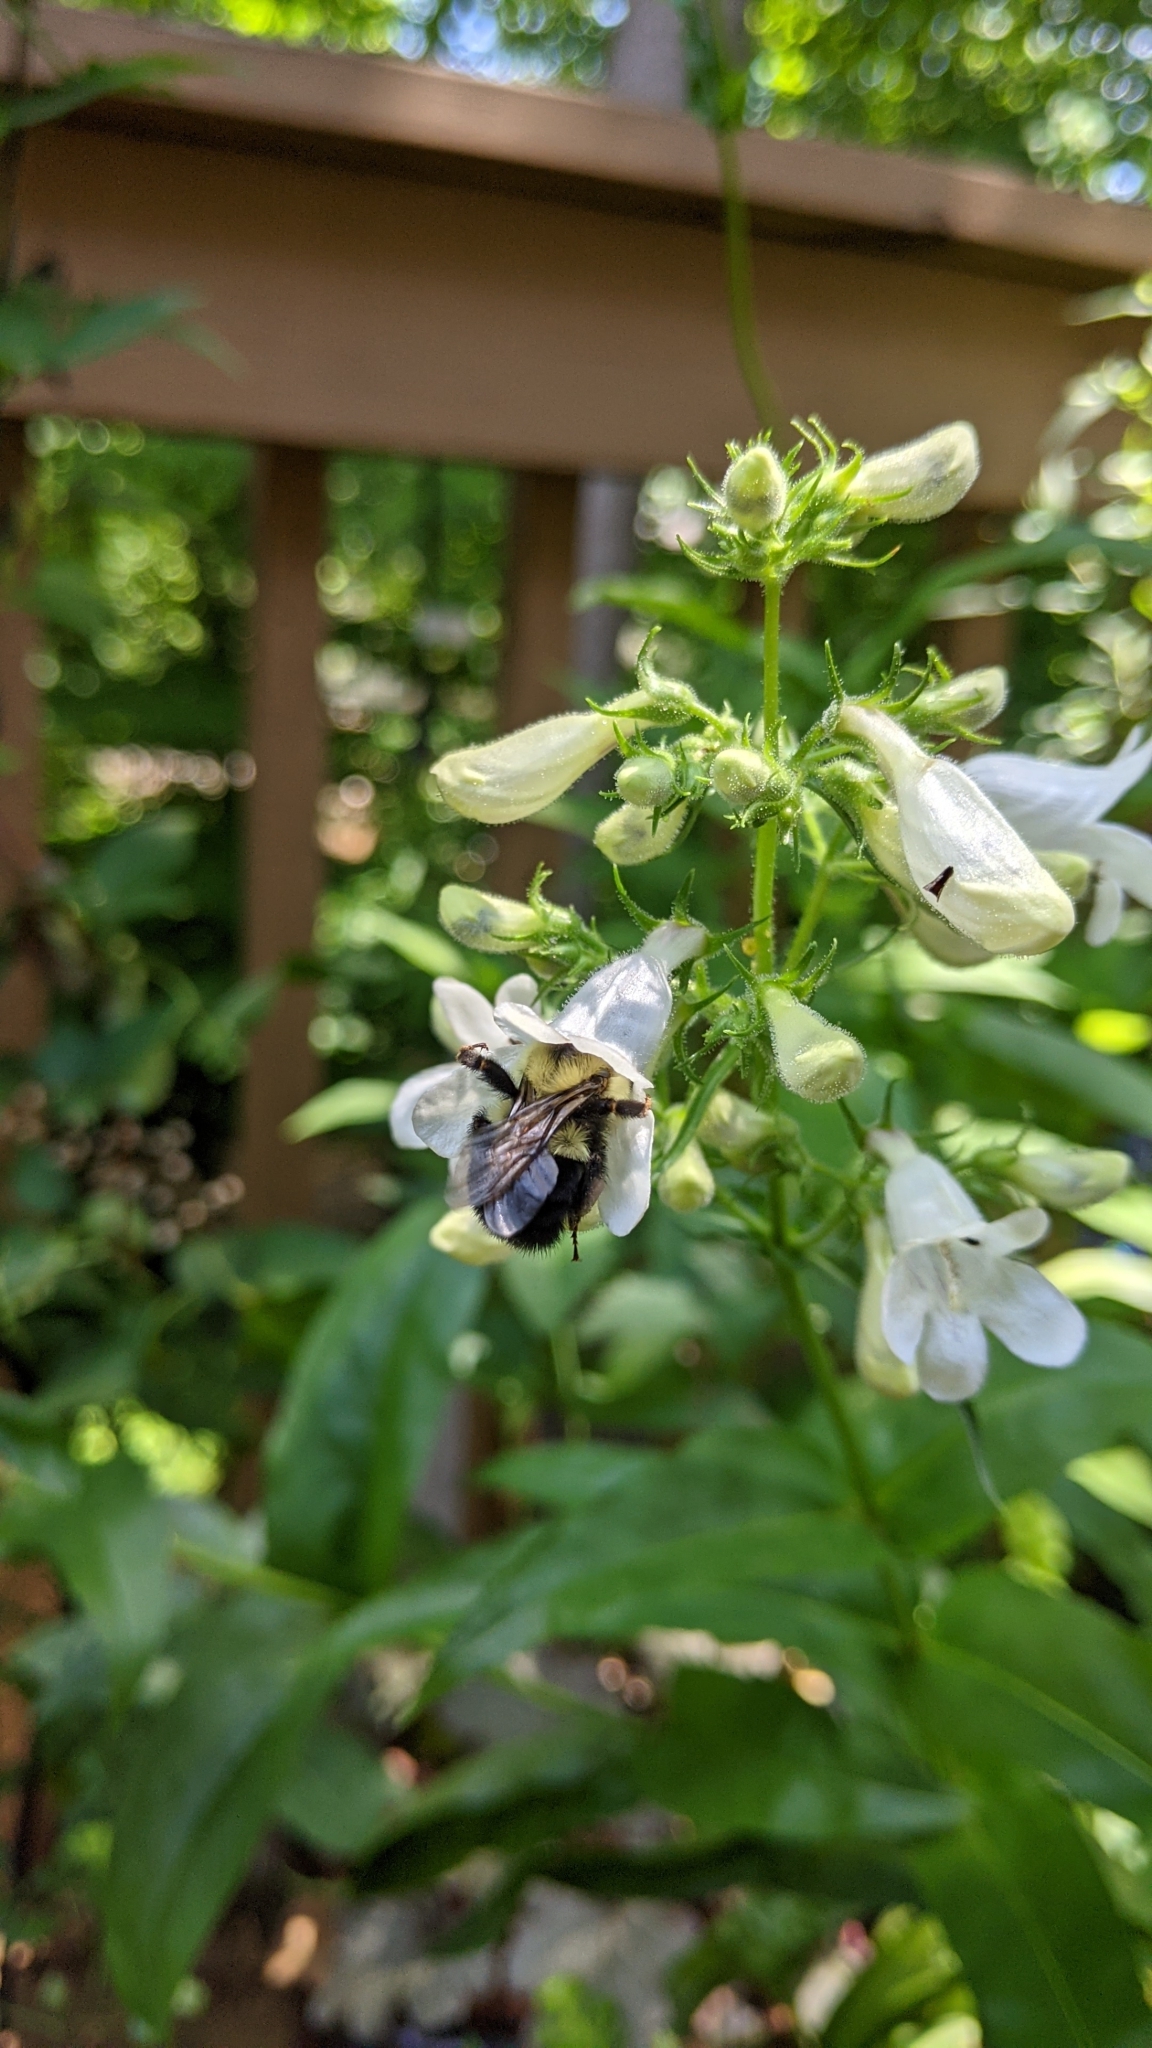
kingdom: Animalia
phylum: Arthropoda
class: Insecta
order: Hymenoptera
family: Apidae
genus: Bombus
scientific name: Bombus bimaculatus
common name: Two-spotted bumble bee
